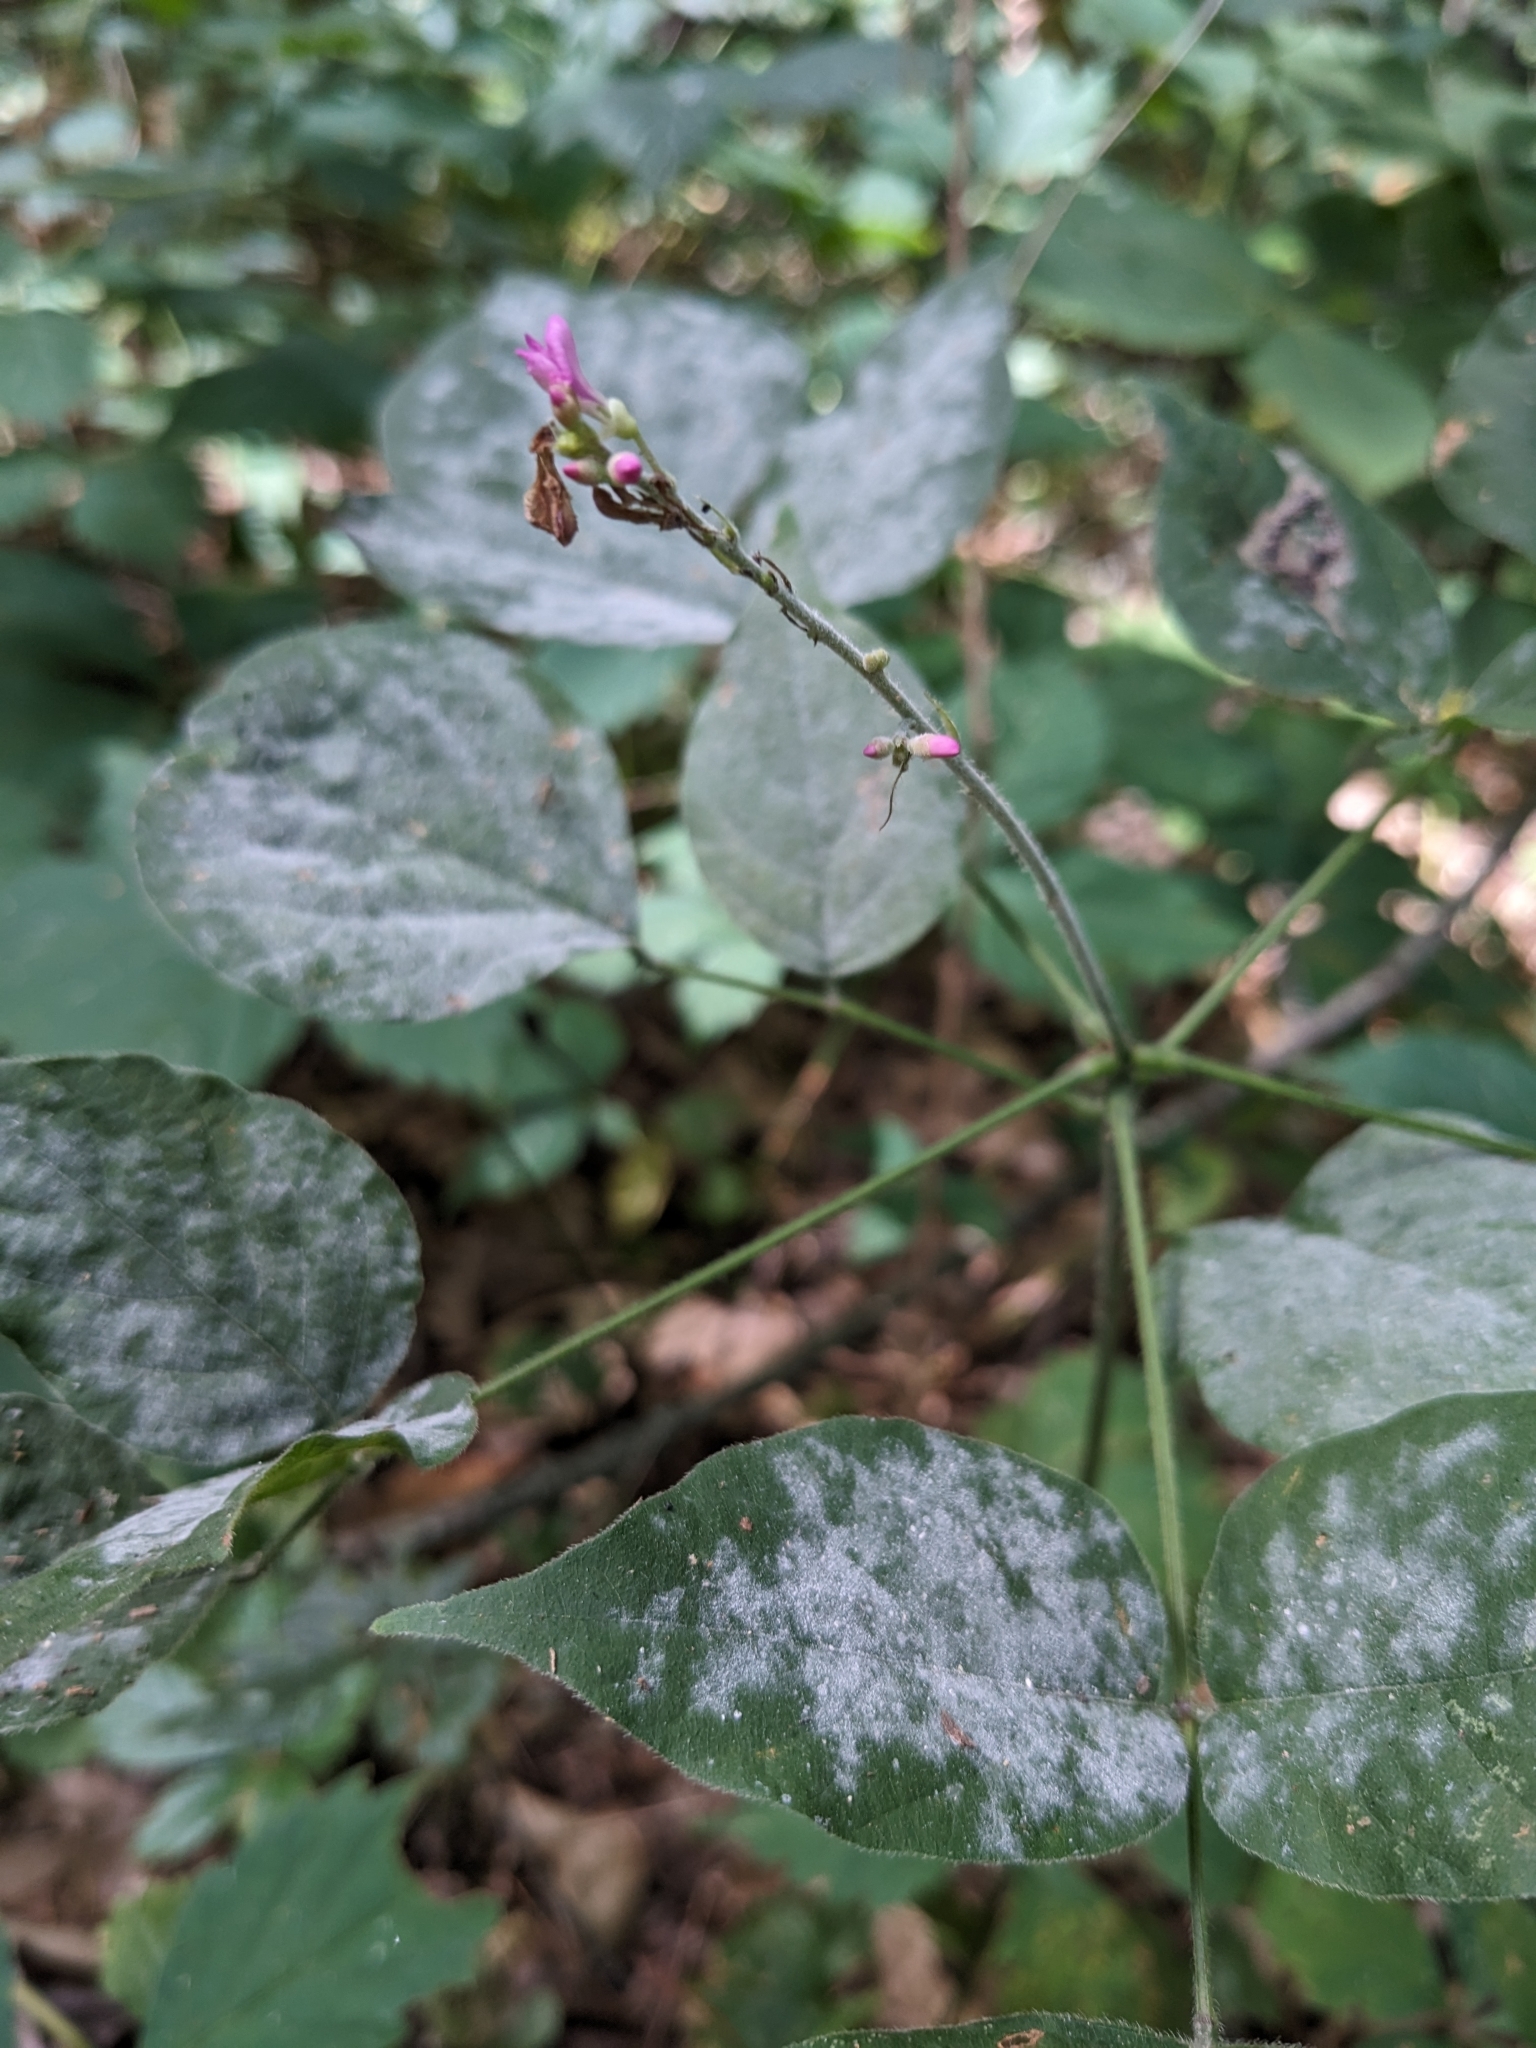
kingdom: Plantae
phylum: Tracheophyta
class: Magnoliopsida
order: Fabales
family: Fabaceae
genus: Hylodesmum
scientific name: Hylodesmum glutinosum
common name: Clustered-leaved tick-trefoil
